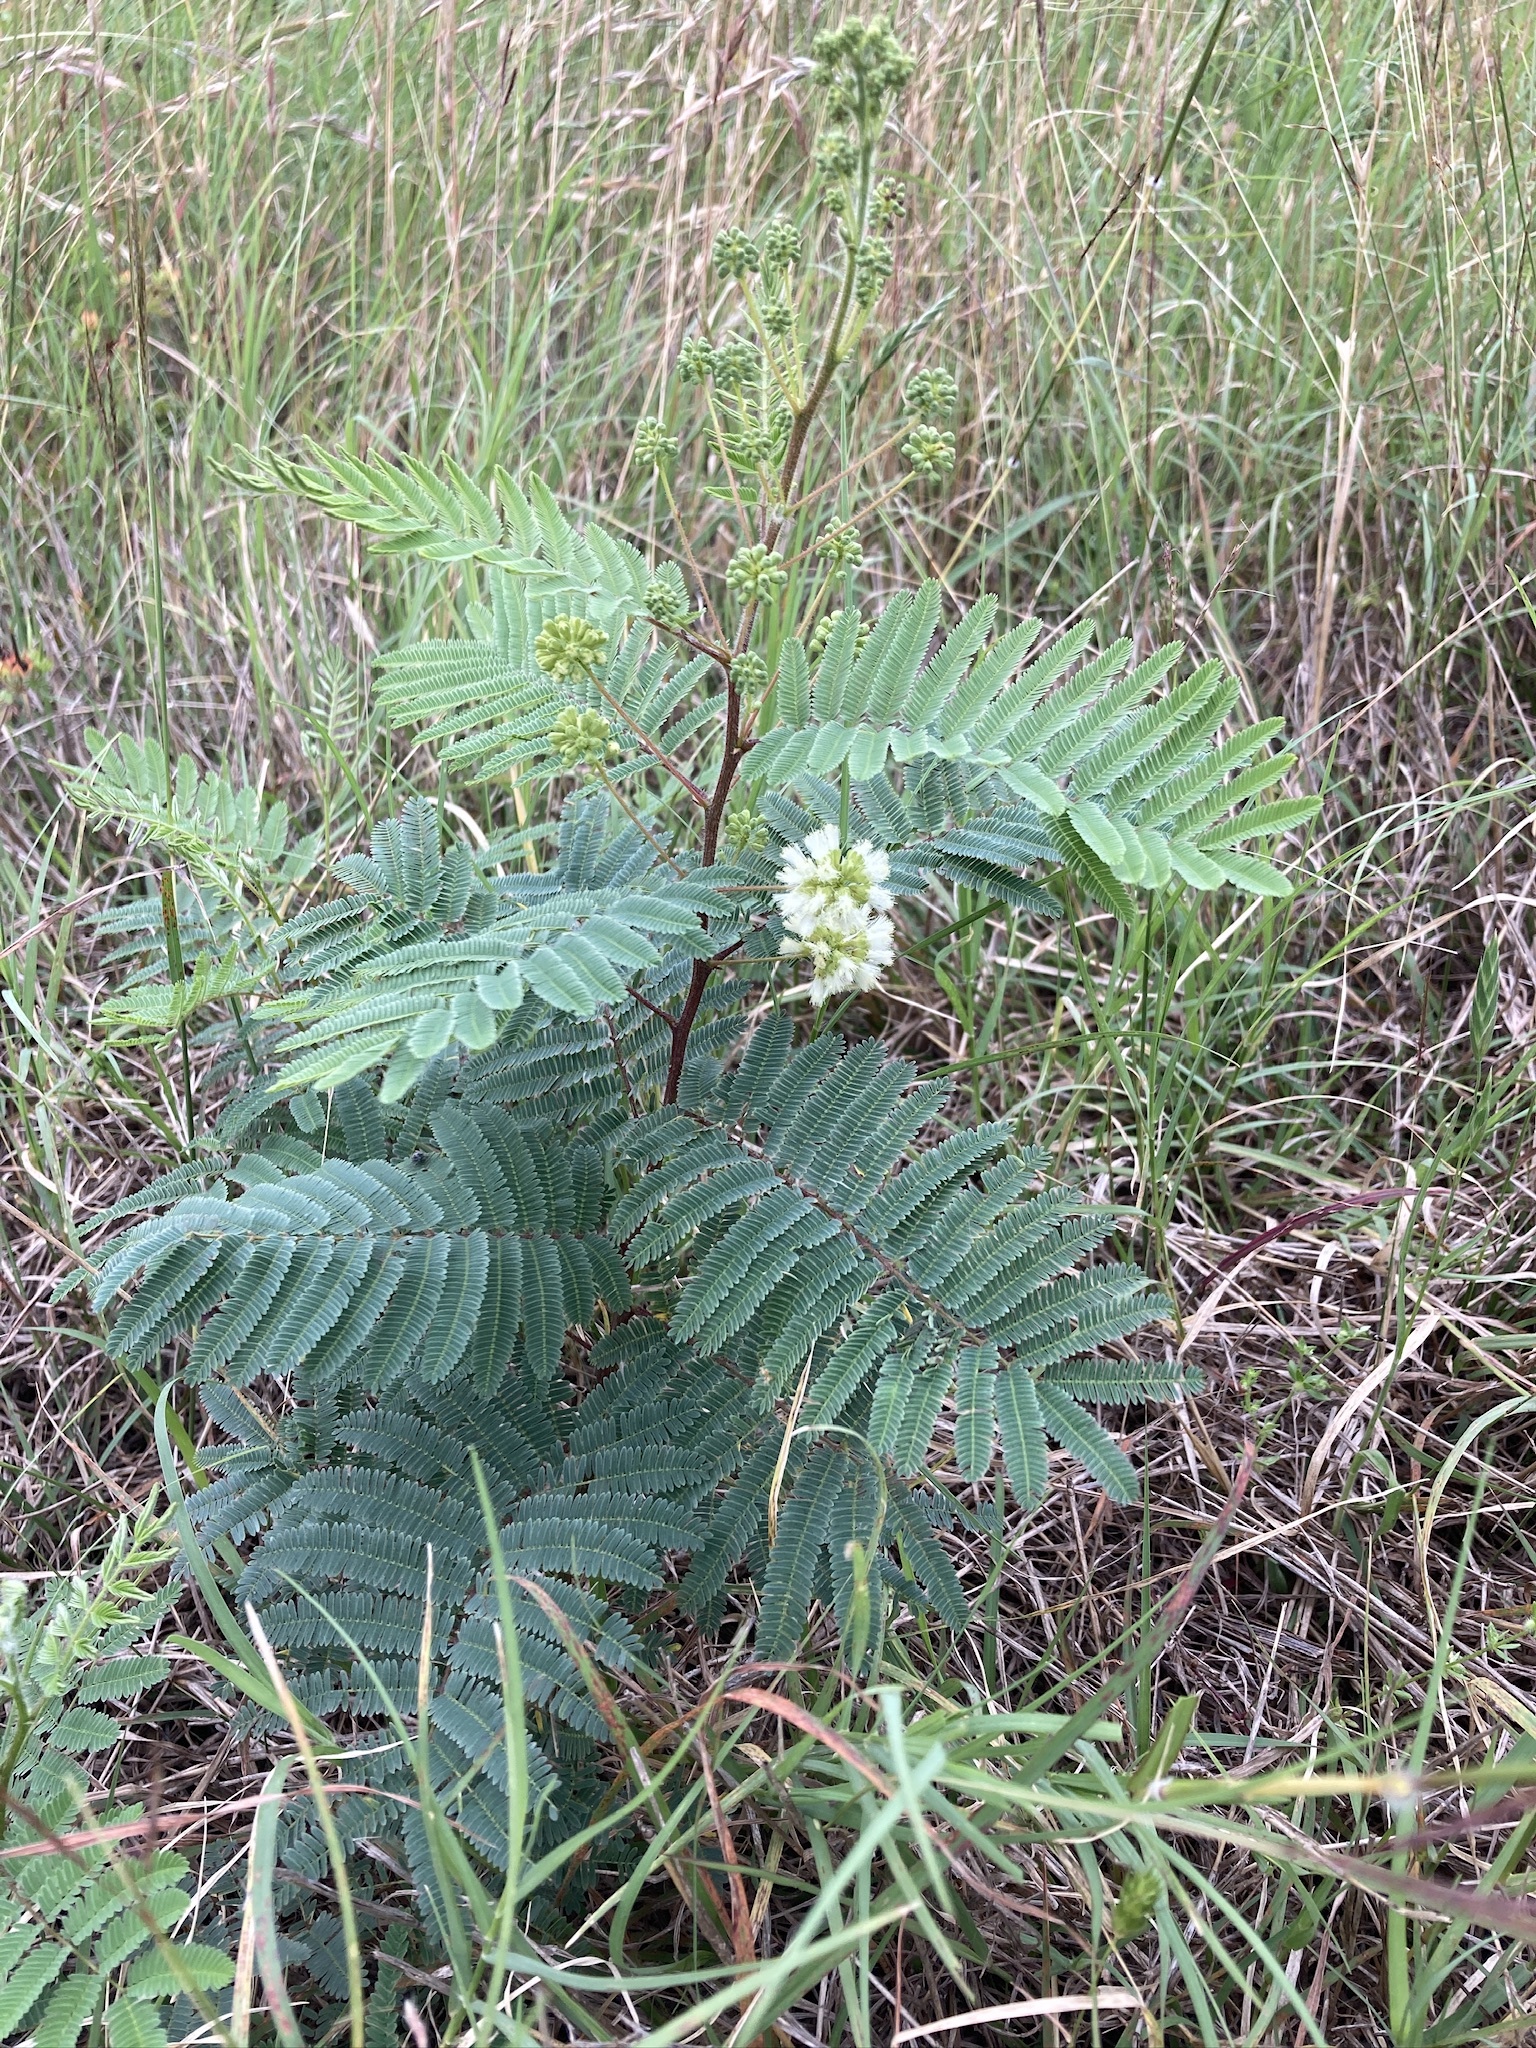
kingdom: Plantae
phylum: Tracheophyta
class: Magnoliopsida
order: Fabales
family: Fabaceae
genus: Acaciella
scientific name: Acaciella angustissima
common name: Prairie acacia
